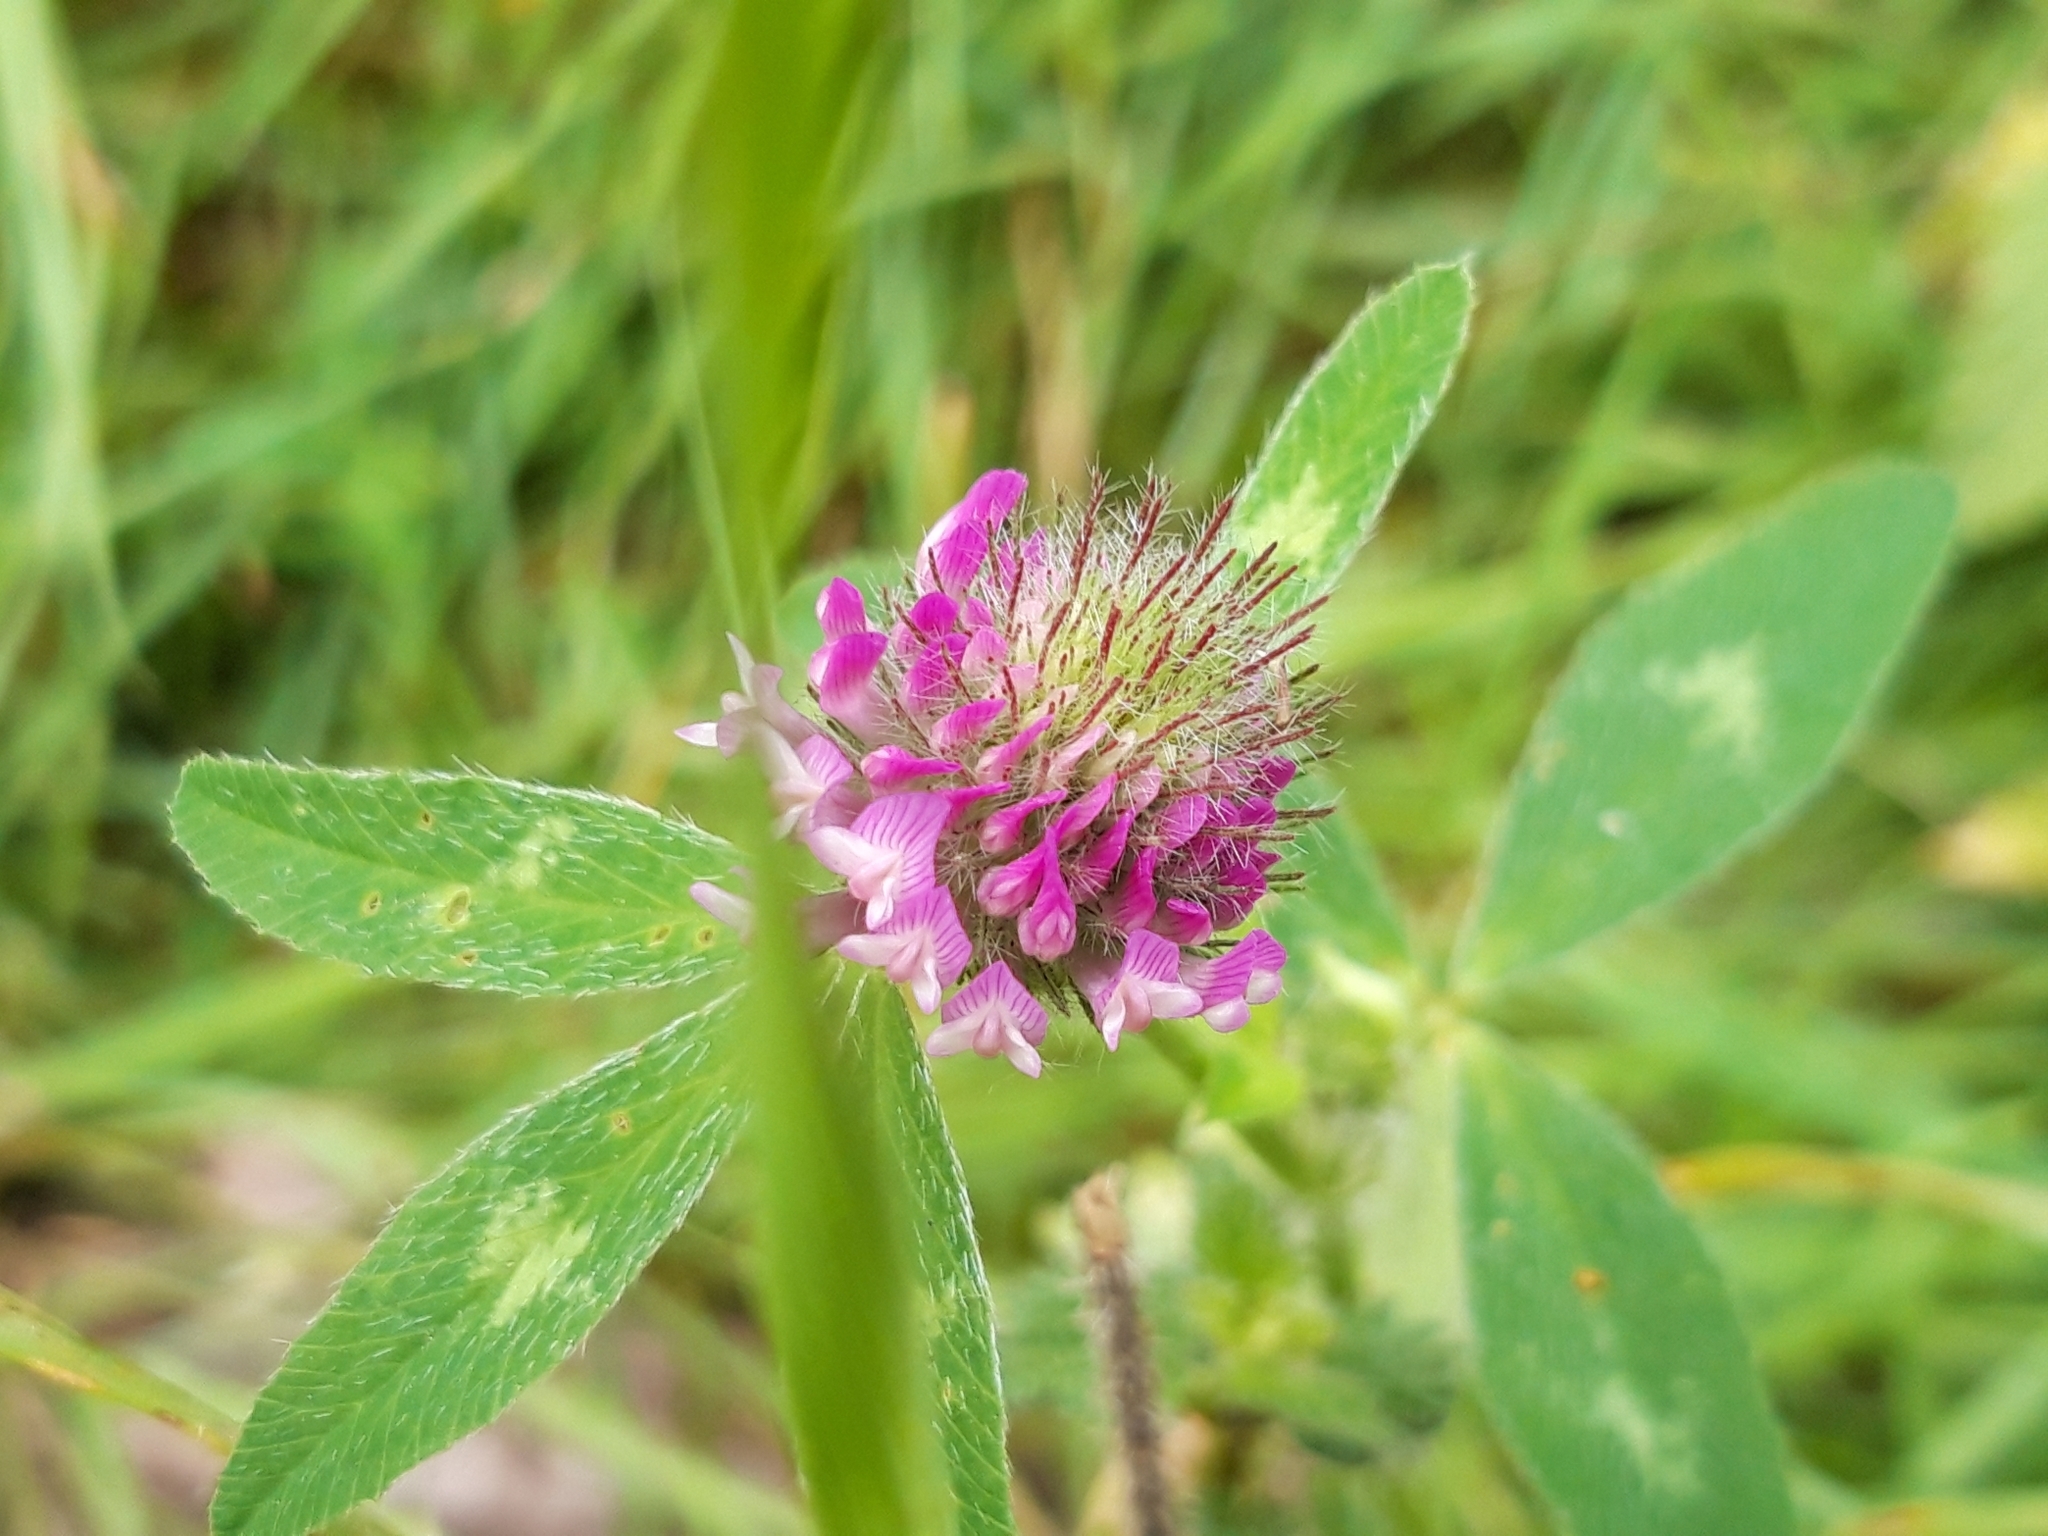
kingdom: Plantae
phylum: Tracheophyta
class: Magnoliopsida
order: Fabales
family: Fabaceae
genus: Trifolium
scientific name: Trifolium pratense
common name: Red clover
